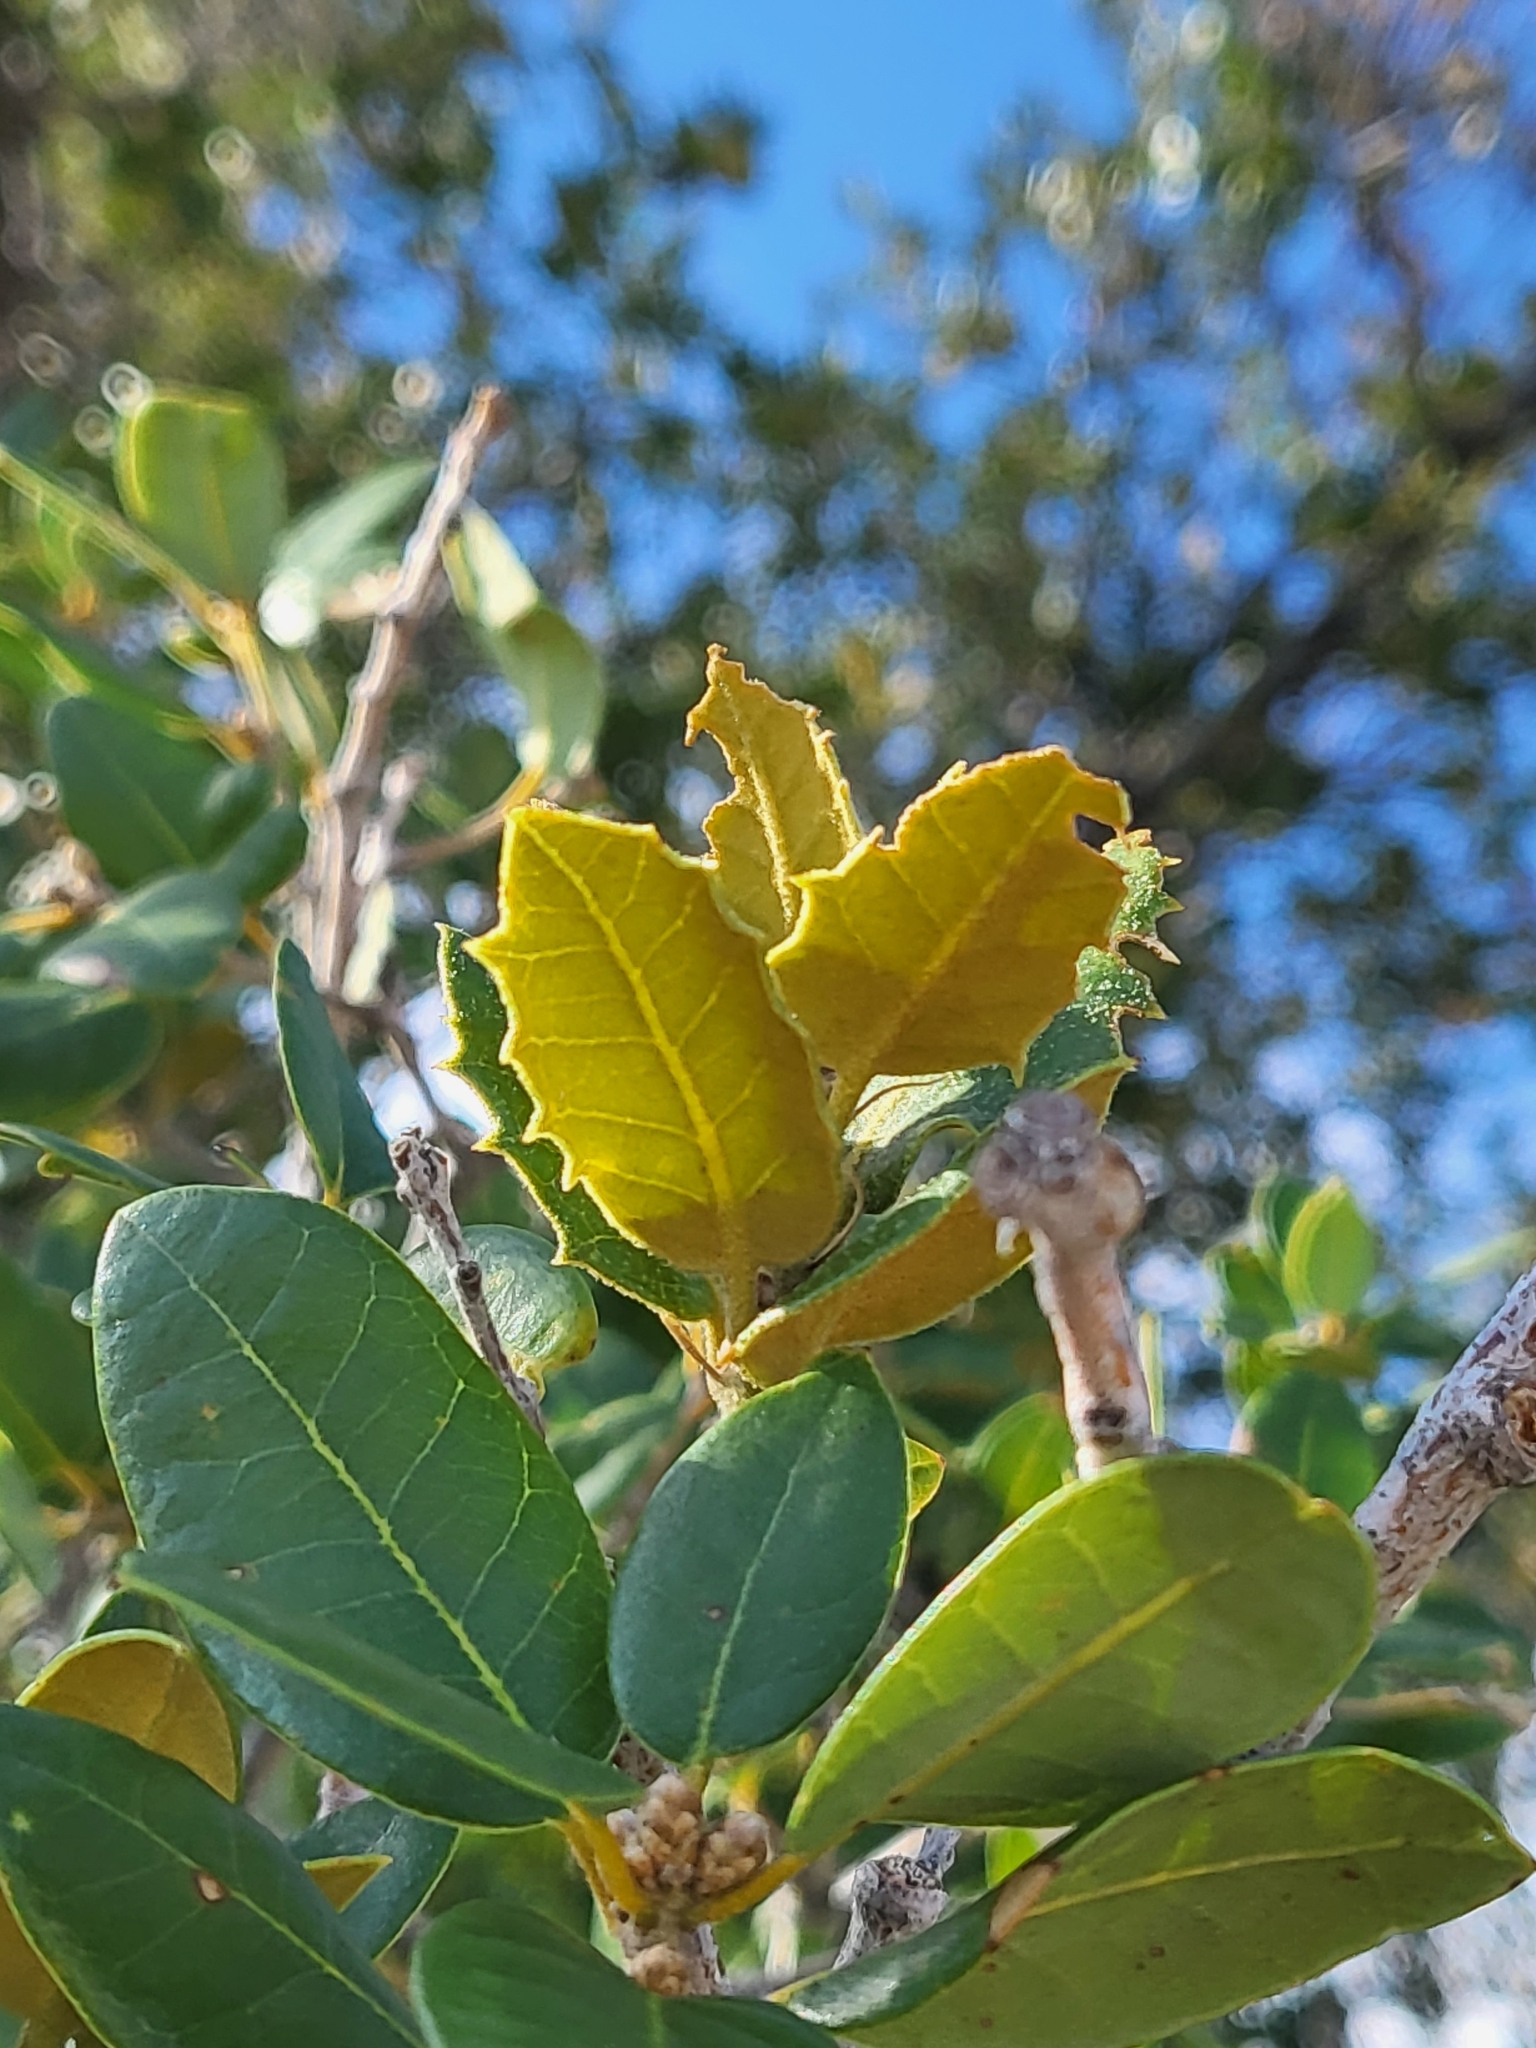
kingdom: Plantae
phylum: Tracheophyta
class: Magnoliopsida
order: Fagales
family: Fagaceae
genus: Quercus
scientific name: Quercus chrysolepis
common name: Canyon live oak
